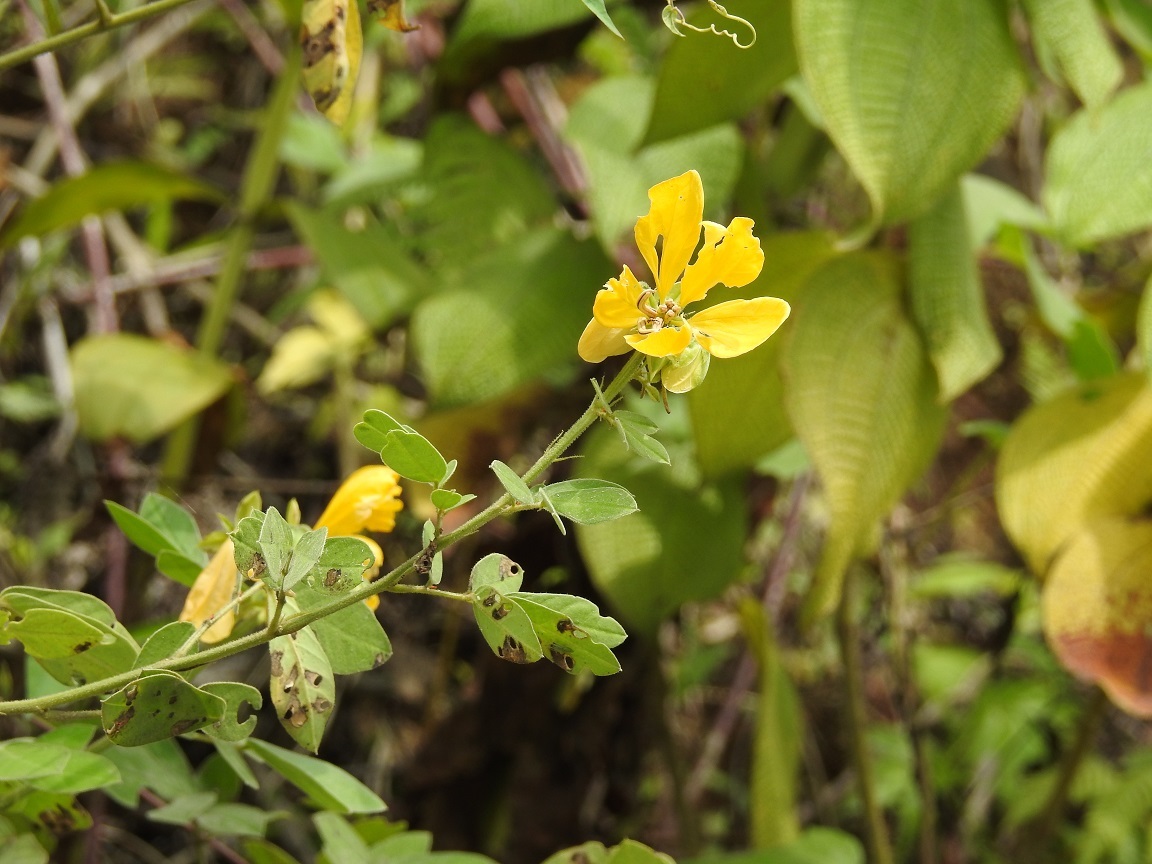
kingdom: Plantae
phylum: Tracheophyta
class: Magnoliopsida
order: Fabales
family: Fabaceae
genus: Senna
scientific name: Senna obtusifolia
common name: Java-bean
